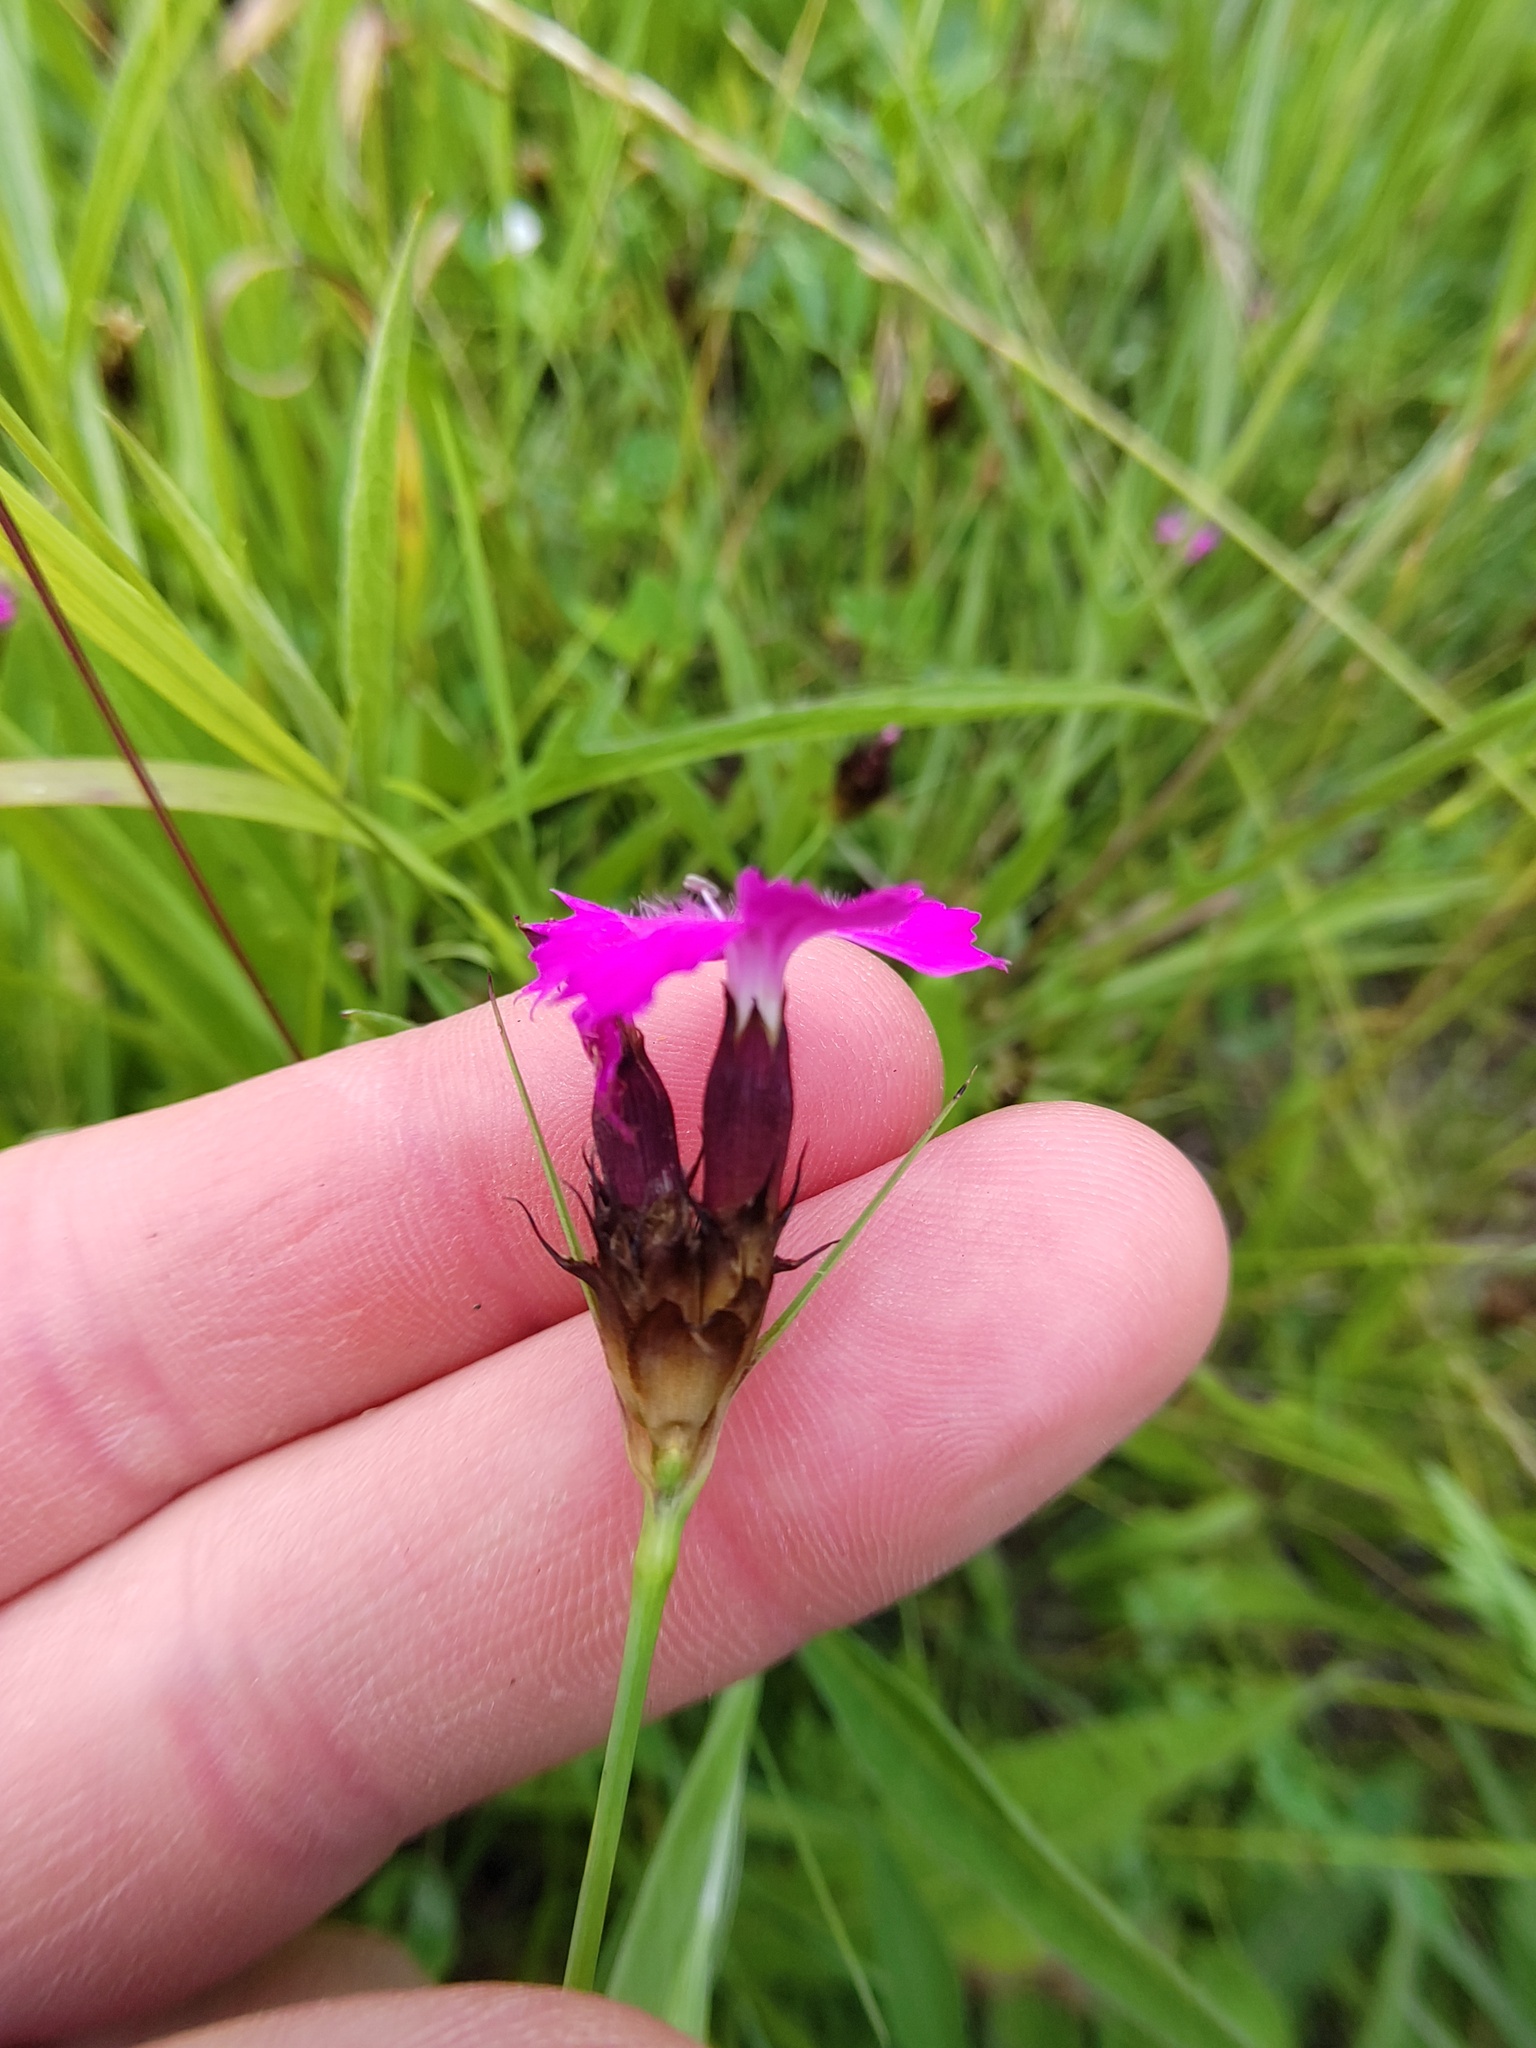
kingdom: Plantae
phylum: Tracheophyta
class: Magnoliopsida
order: Caryophyllales
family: Caryophyllaceae
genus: Dianthus
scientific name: Dianthus carthusianorum
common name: Carthusian pink
